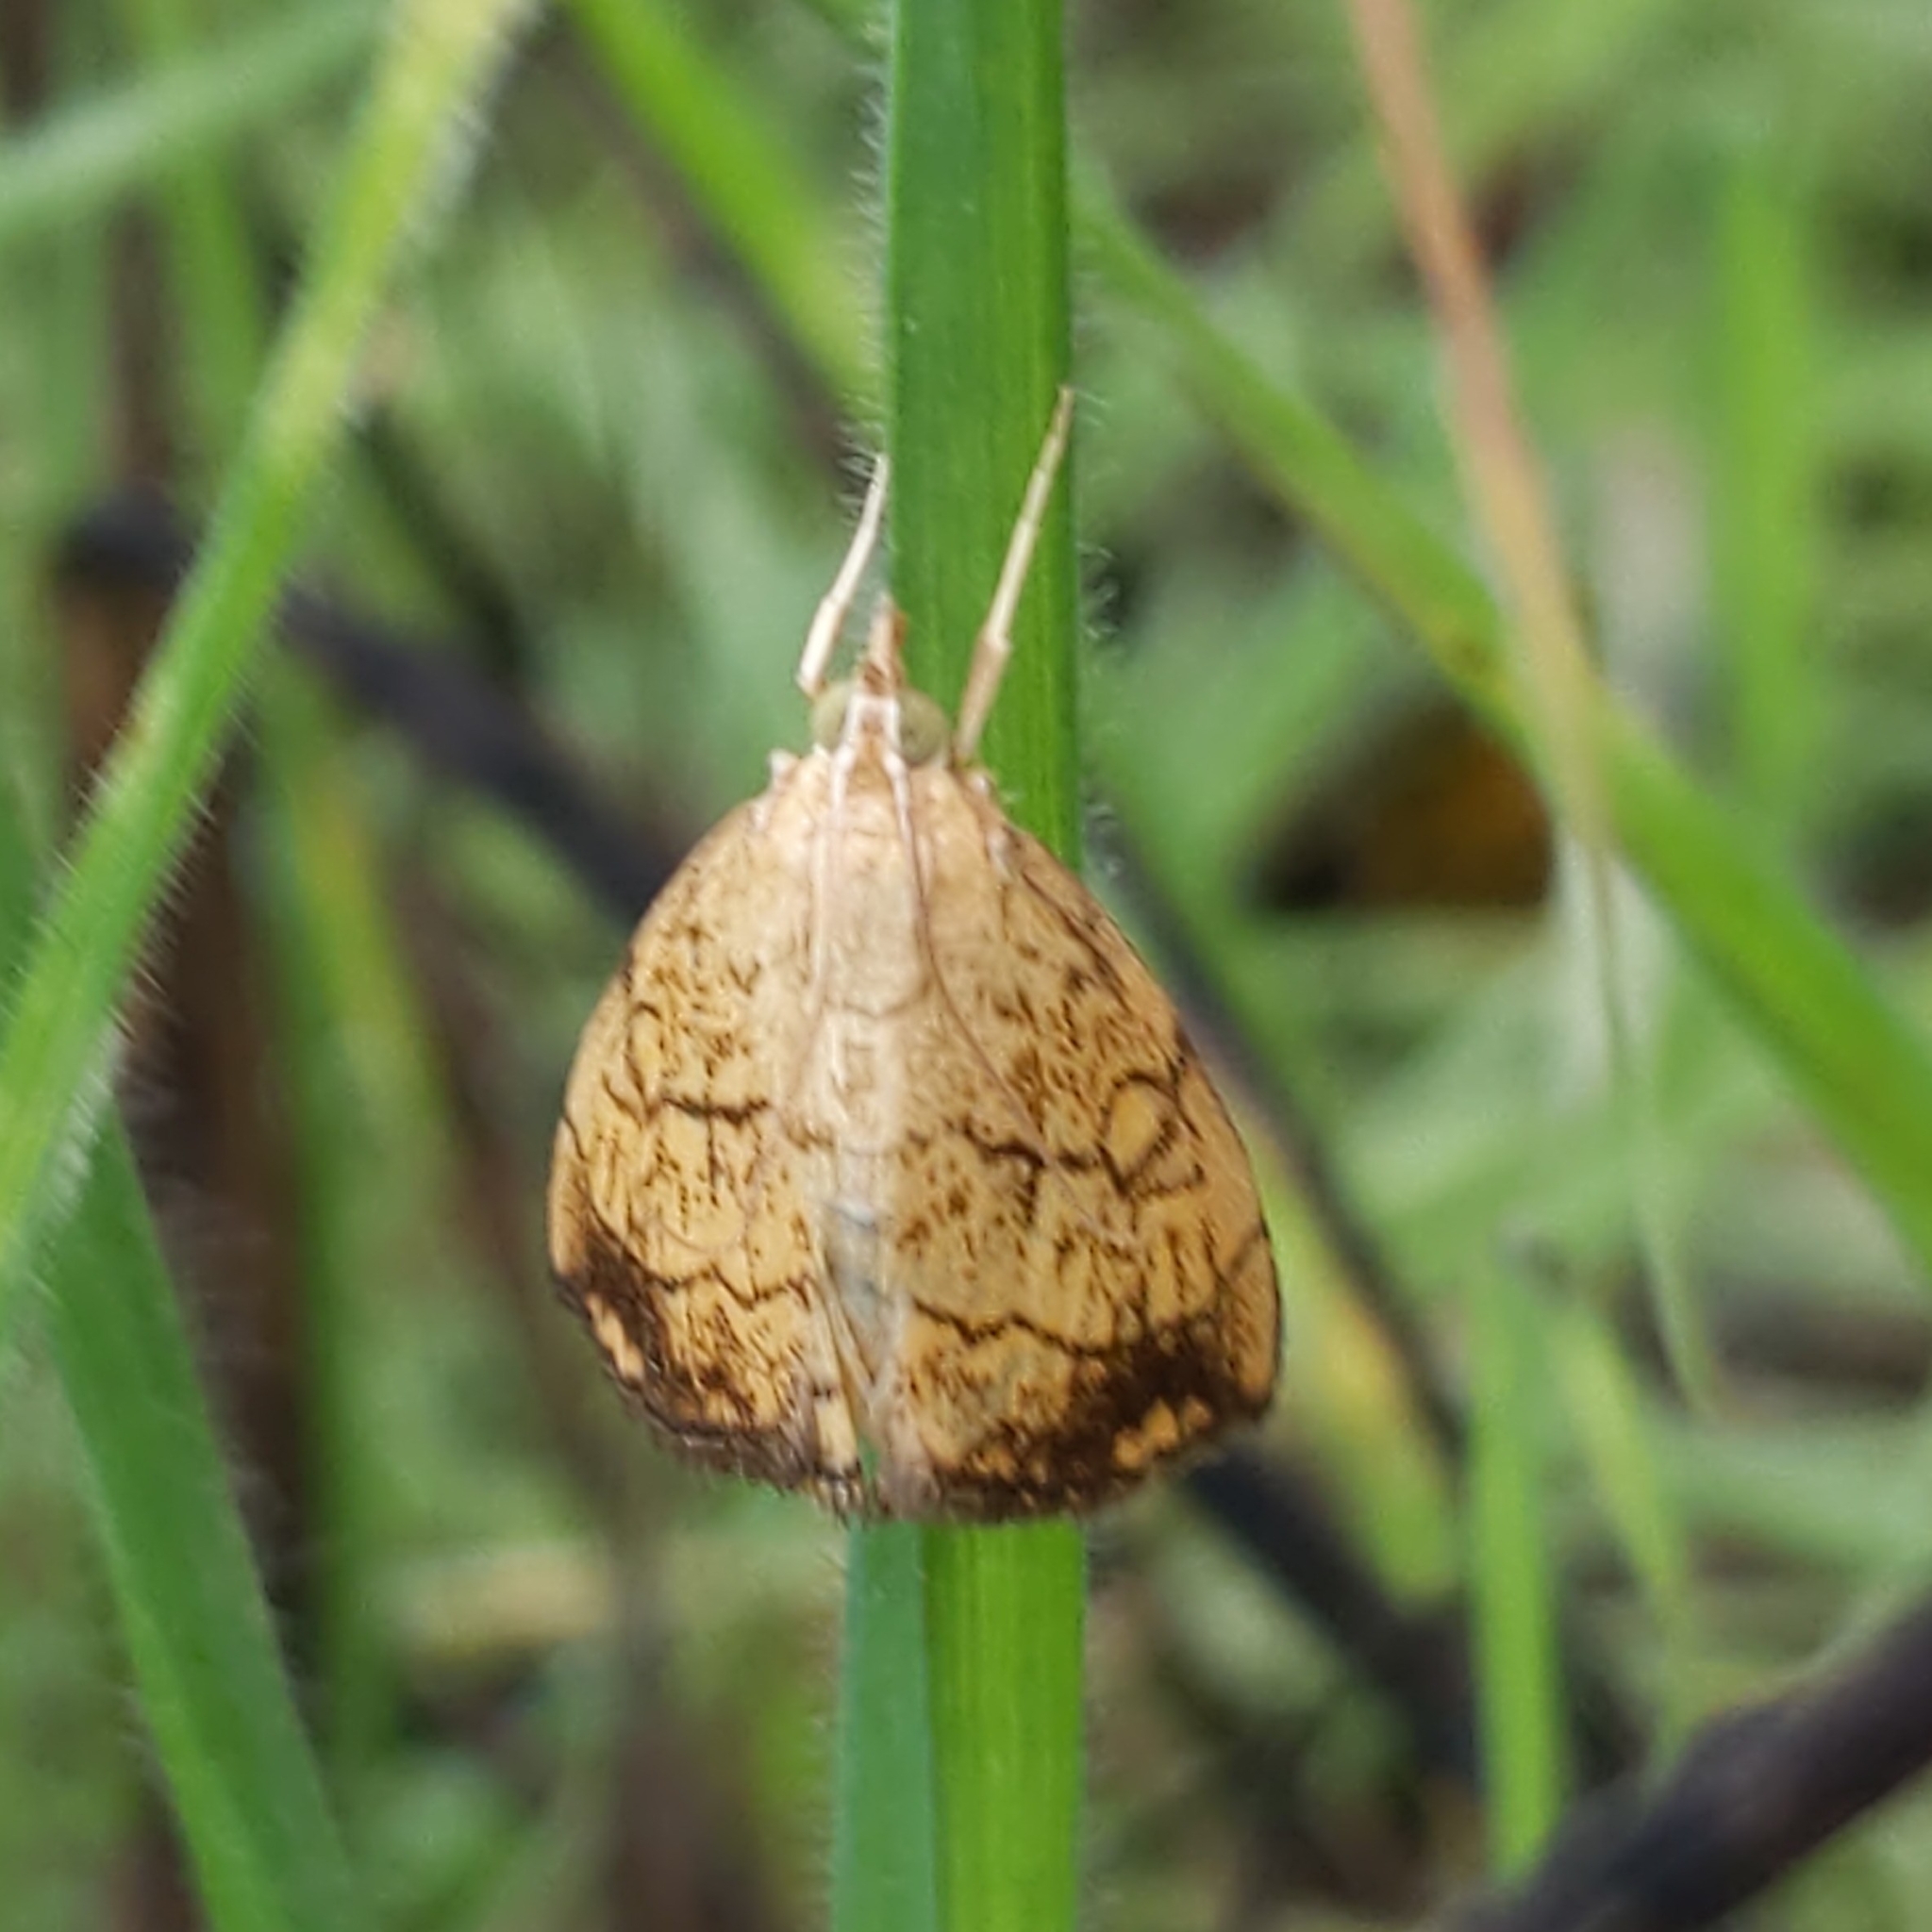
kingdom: Animalia
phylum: Arthropoda
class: Insecta
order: Lepidoptera
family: Crambidae
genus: Evergestis
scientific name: Evergestis pallidata
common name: Chequered pearl
